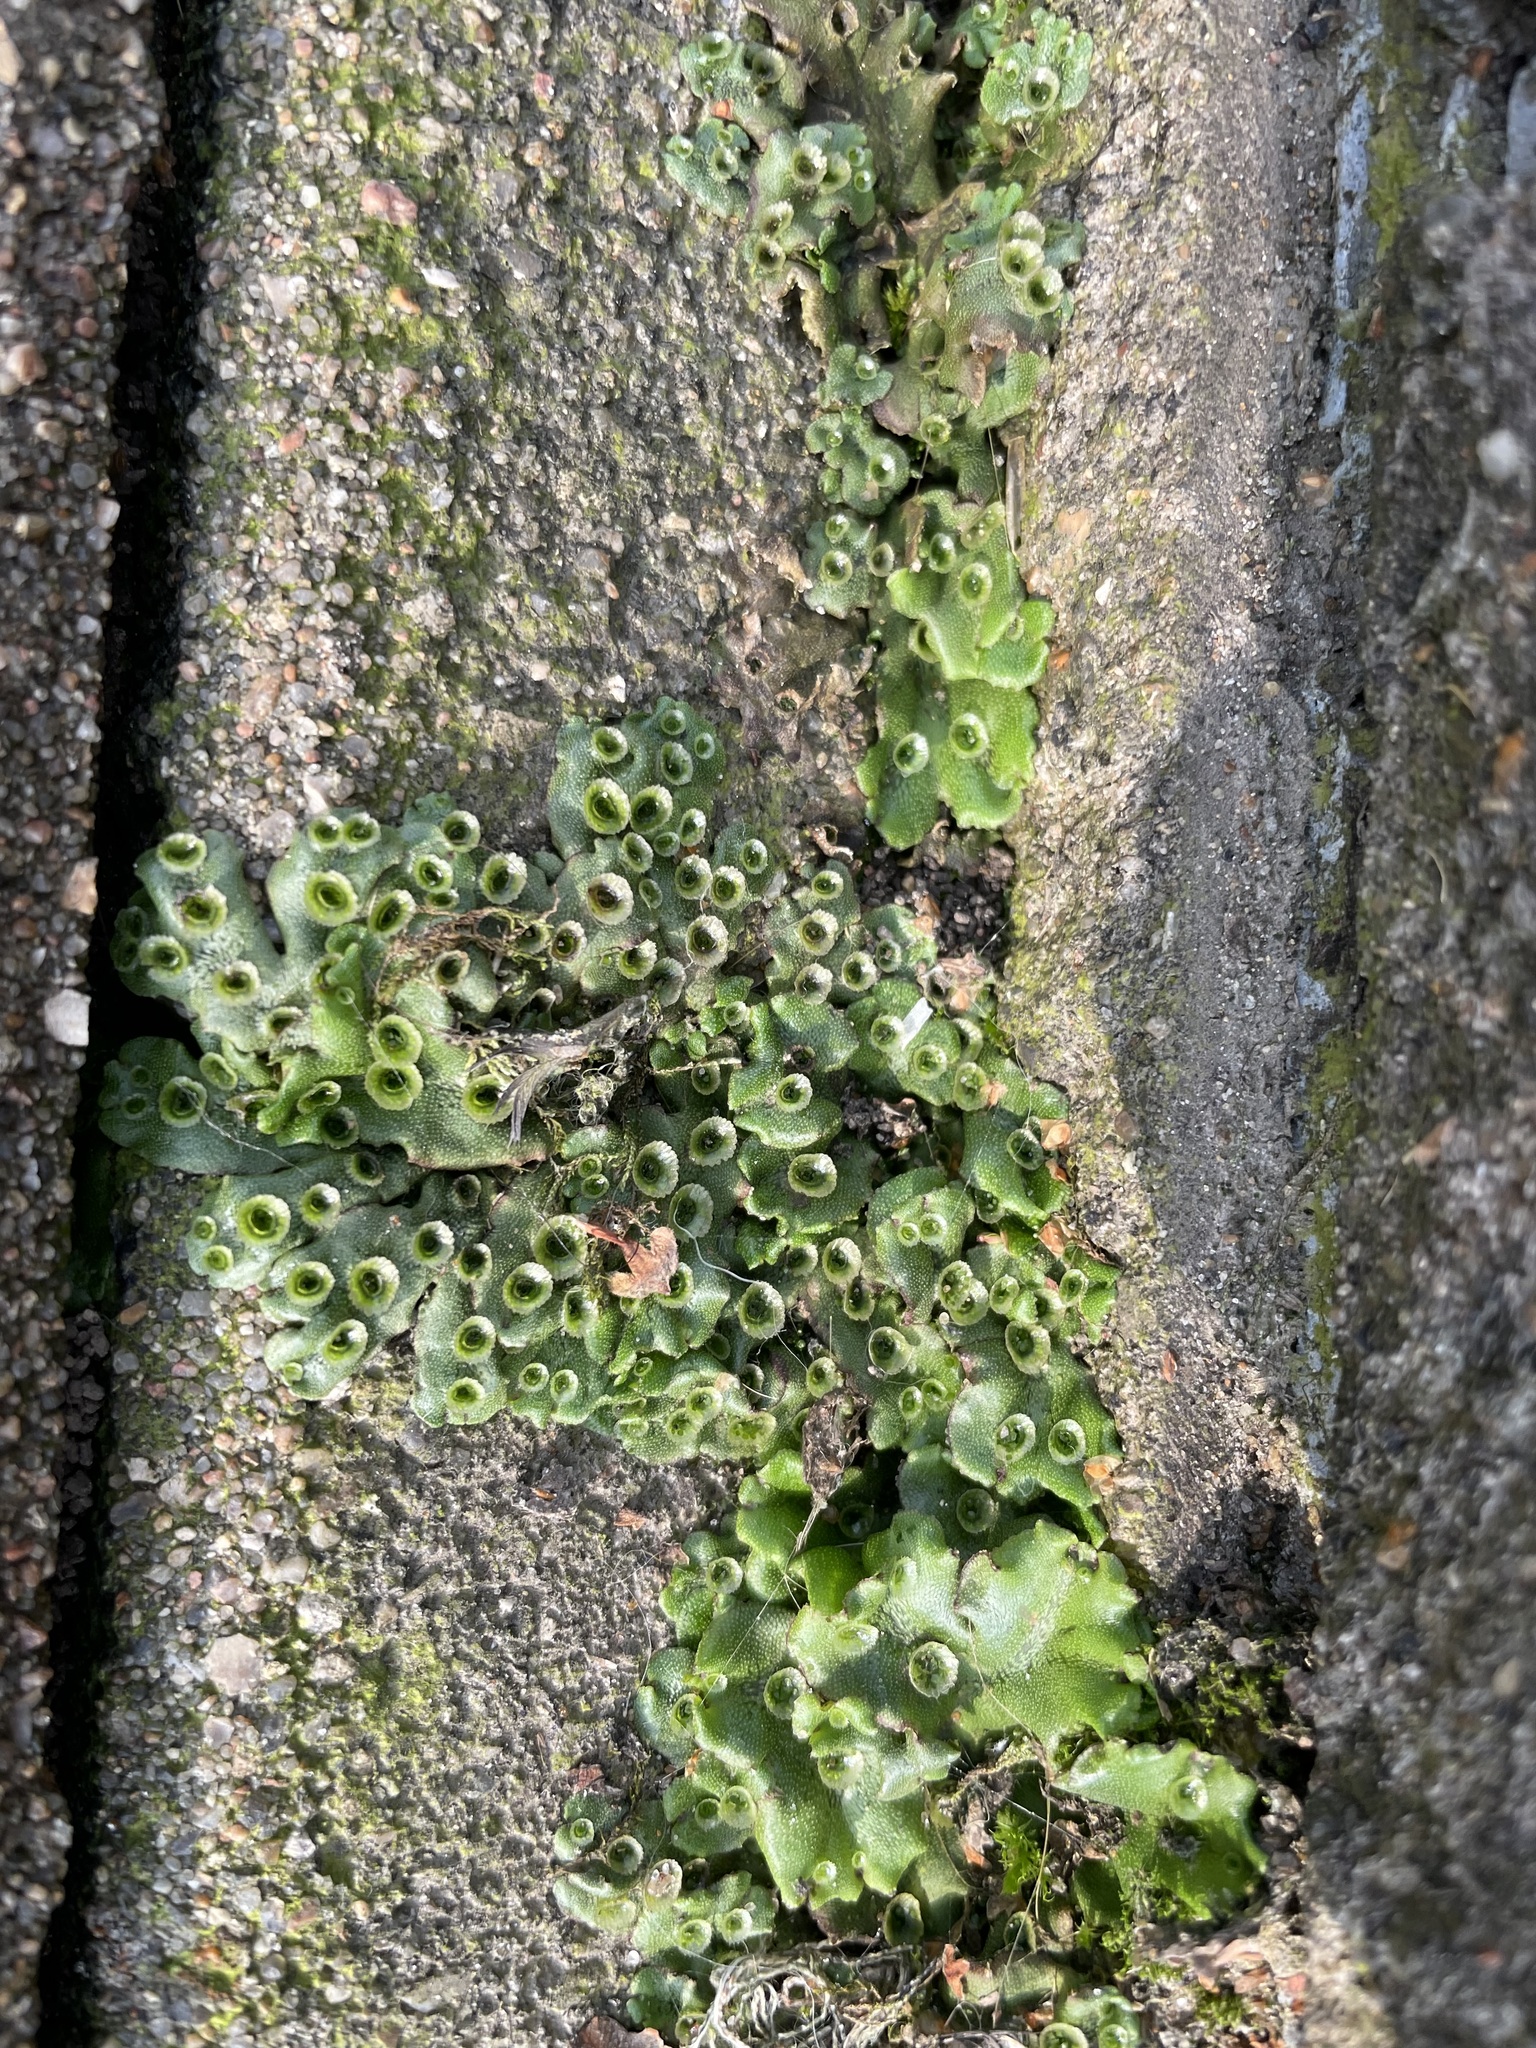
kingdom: Plantae
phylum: Marchantiophyta
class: Marchantiopsida
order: Marchantiales
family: Marchantiaceae
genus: Marchantia
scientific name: Marchantia polymorpha
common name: Common liverwort
